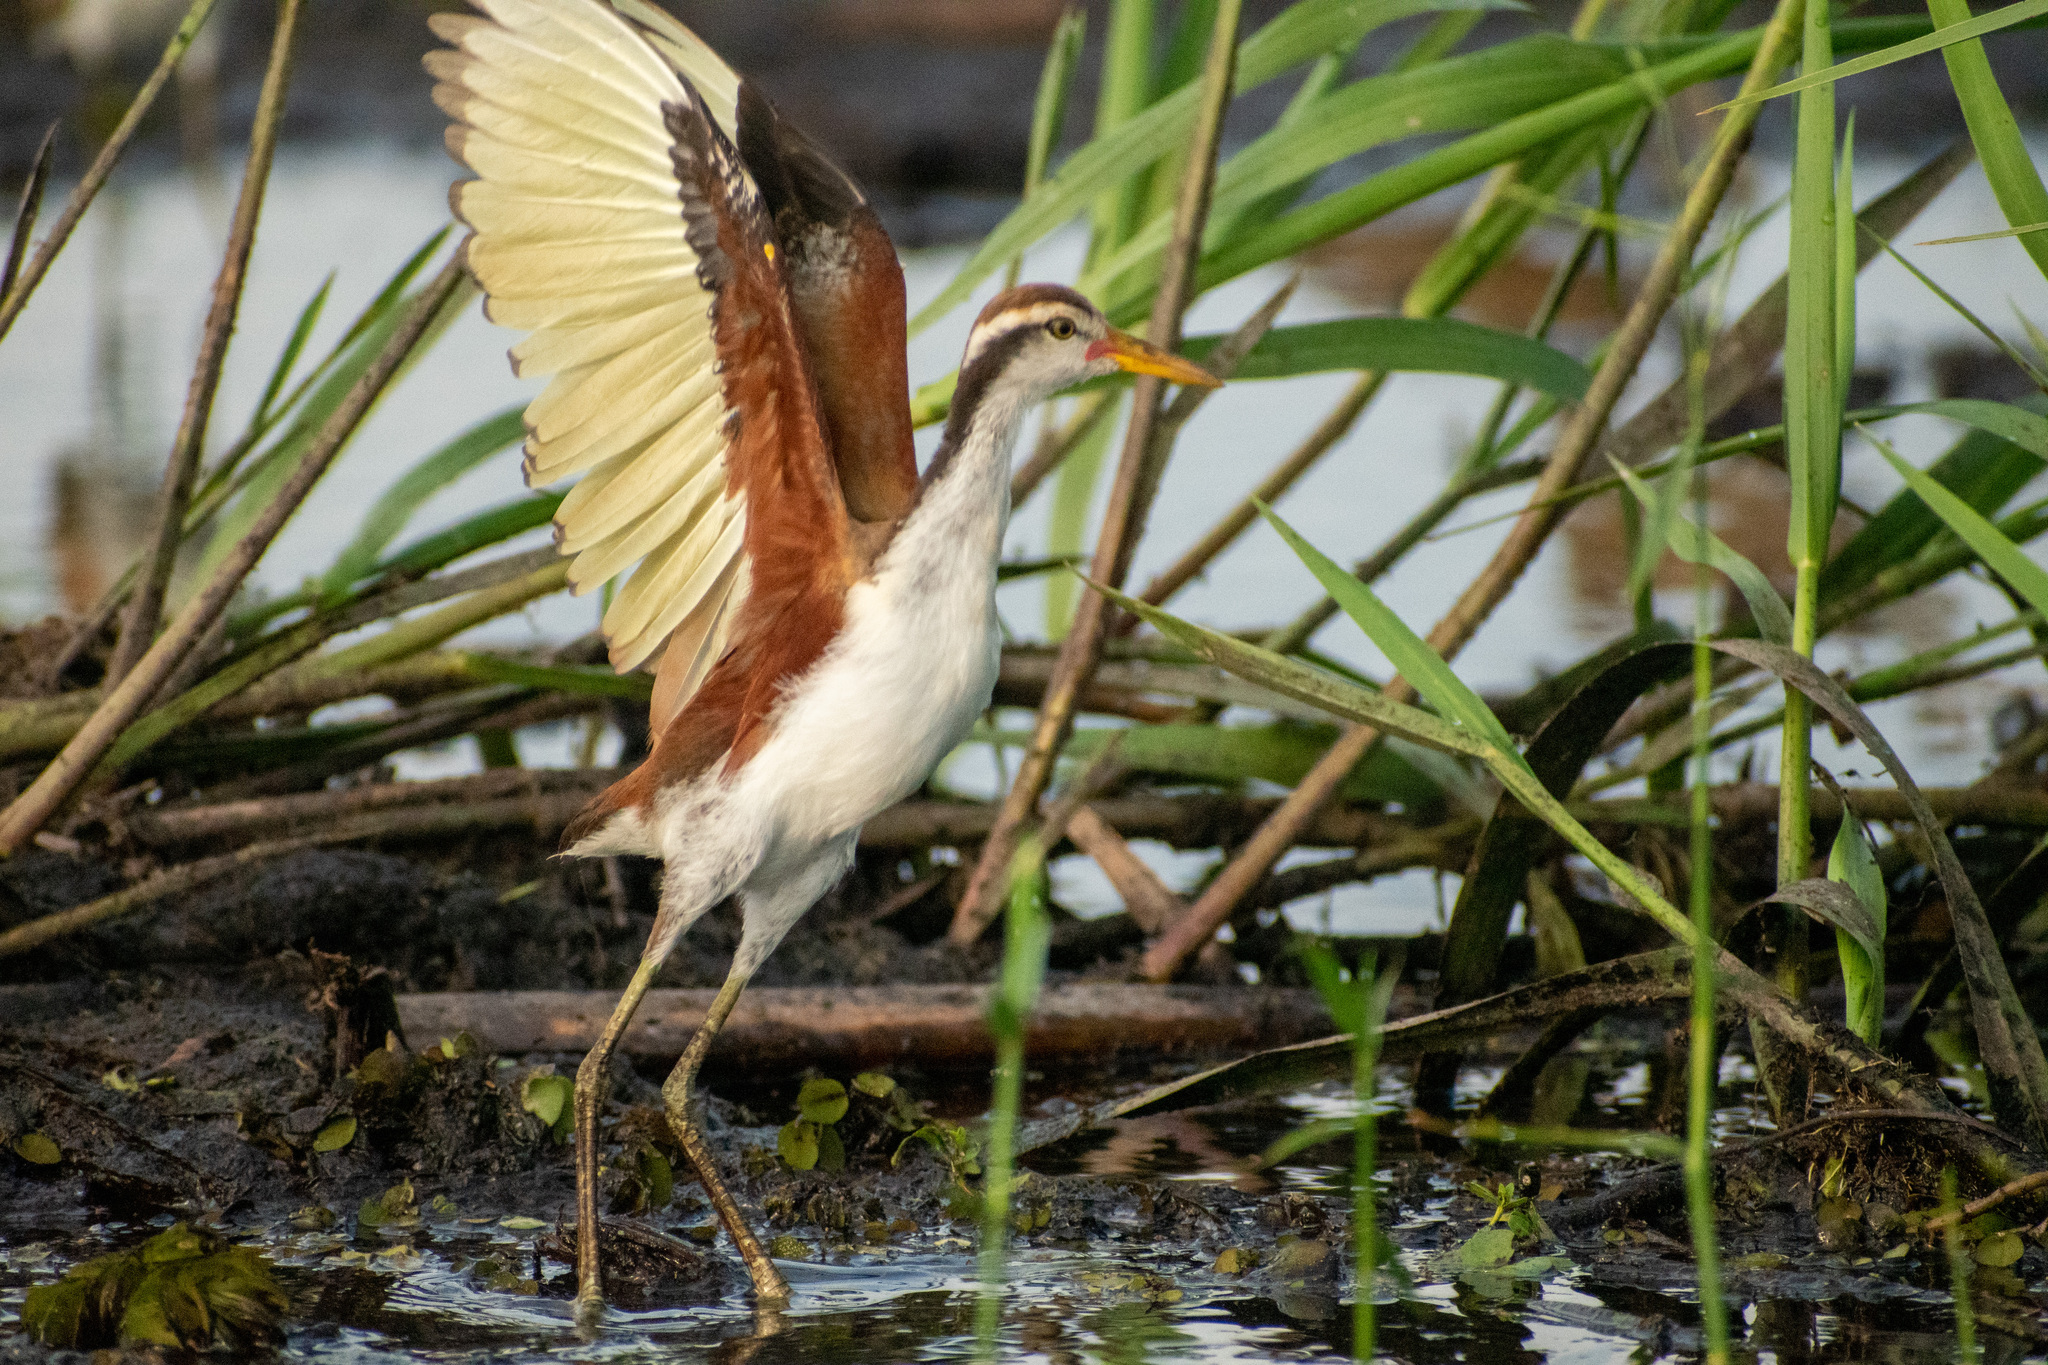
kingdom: Animalia
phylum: Chordata
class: Aves
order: Charadriiformes
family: Jacanidae
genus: Jacana
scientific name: Jacana jacana
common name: Wattled jacana
